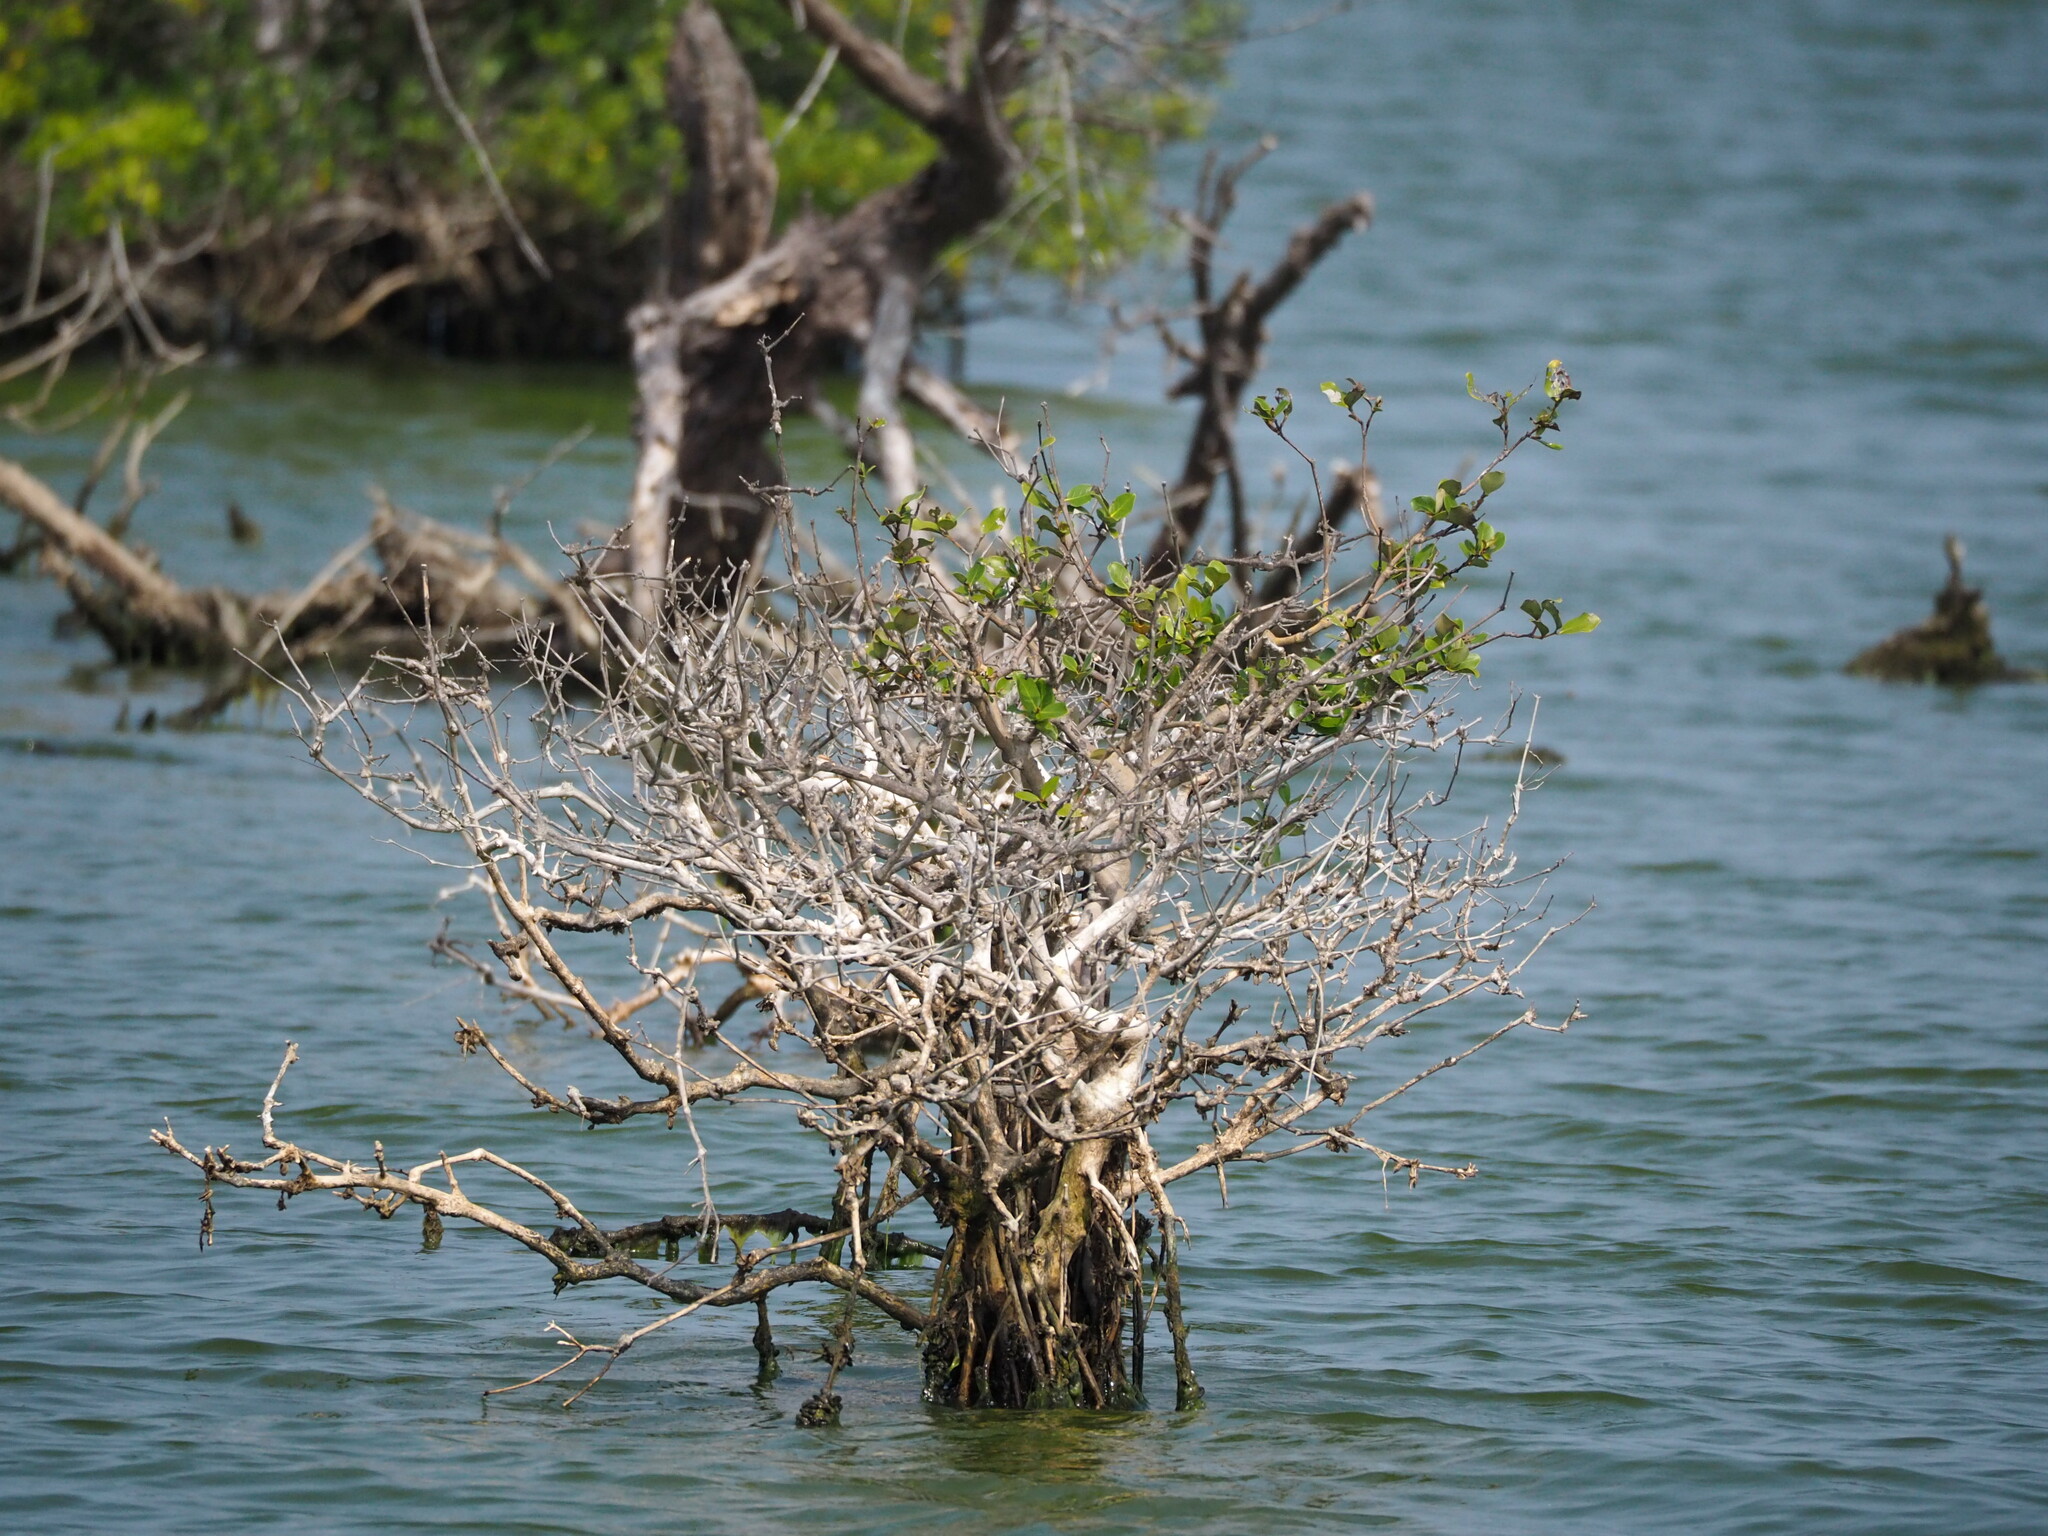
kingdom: Plantae
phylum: Tracheophyta
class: Magnoliopsida
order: Lamiales
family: Acanthaceae
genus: Avicennia
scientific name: Avicennia marina
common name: Gray mangrove
